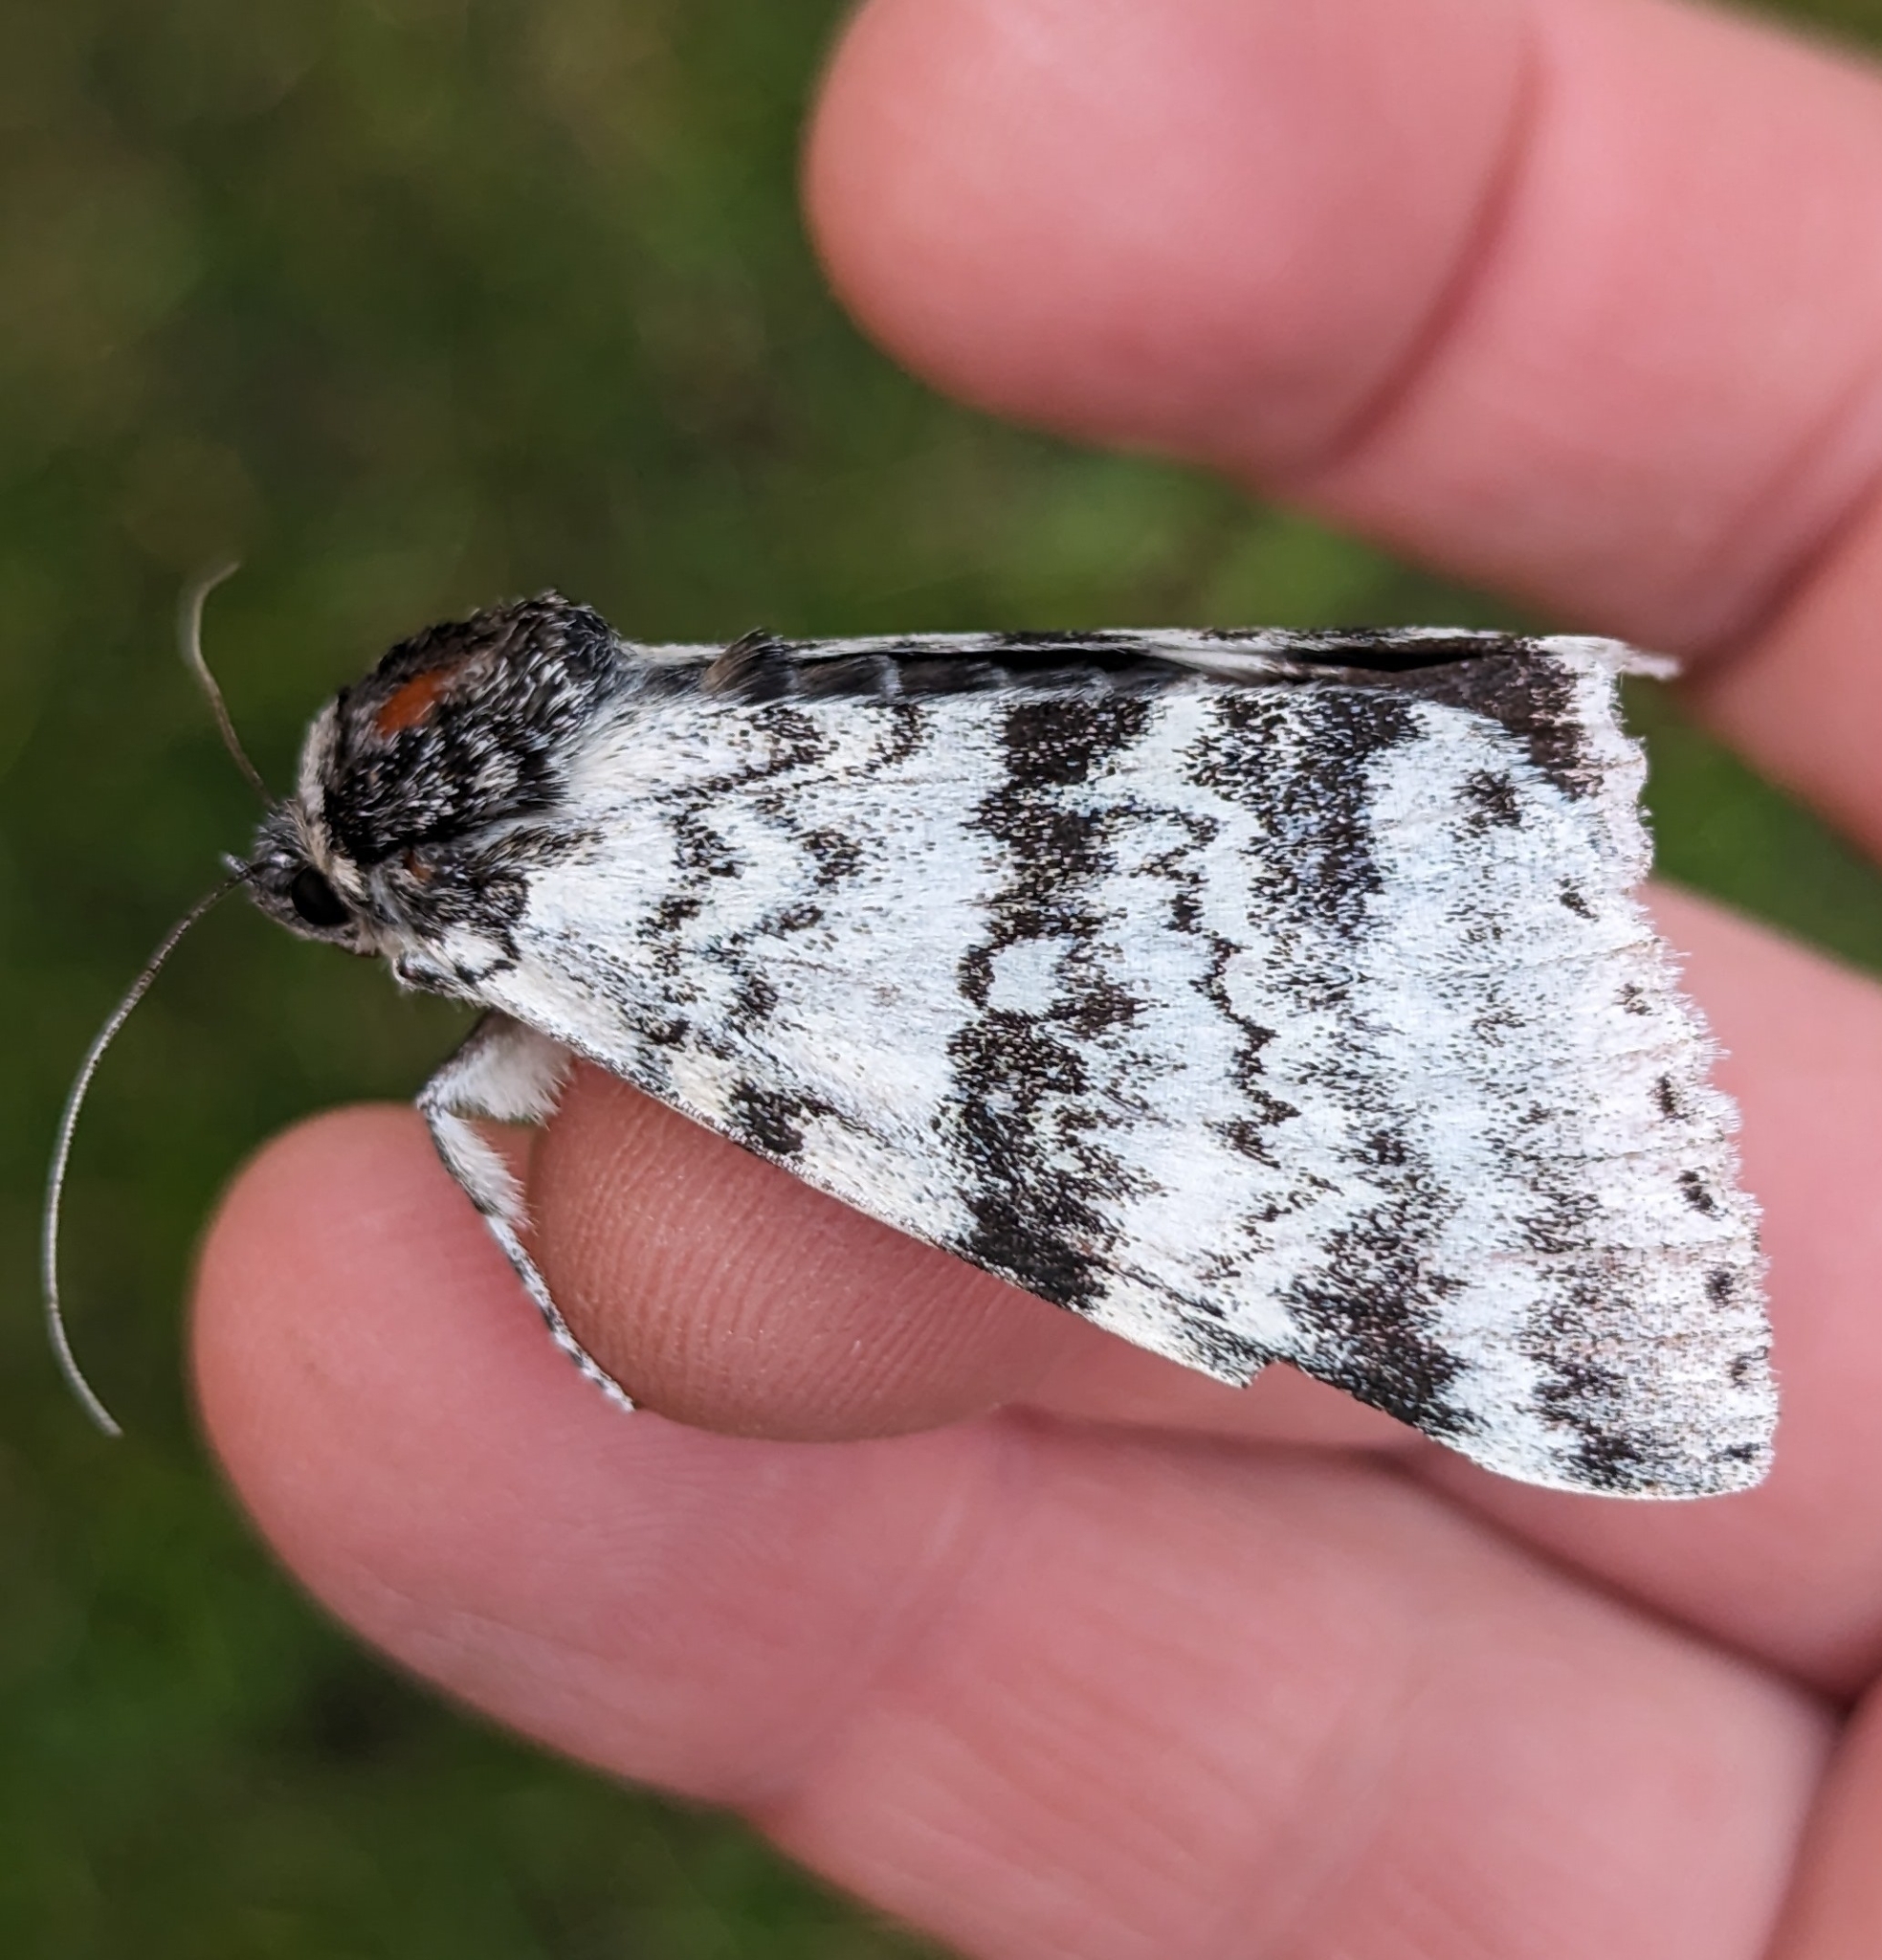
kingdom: Animalia
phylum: Arthropoda
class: Insecta
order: Lepidoptera
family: Erebidae
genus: Catocala
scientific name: Catocala relicta
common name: White underwing
